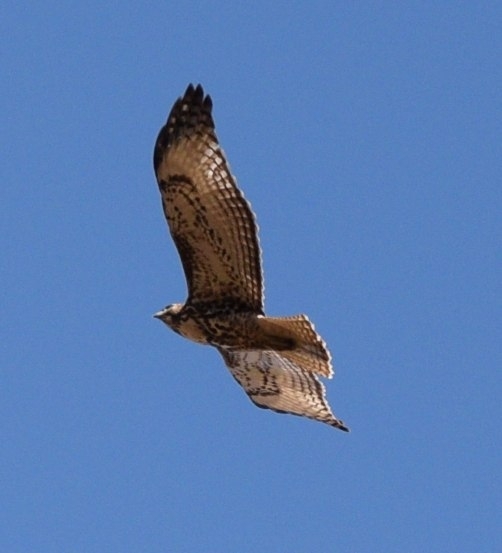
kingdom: Animalia
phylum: Chordata
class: Aves
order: Accipitriformes
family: Accipitridae
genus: Buteo
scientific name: Buteo jamaicensis
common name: Red-tailed hawk
